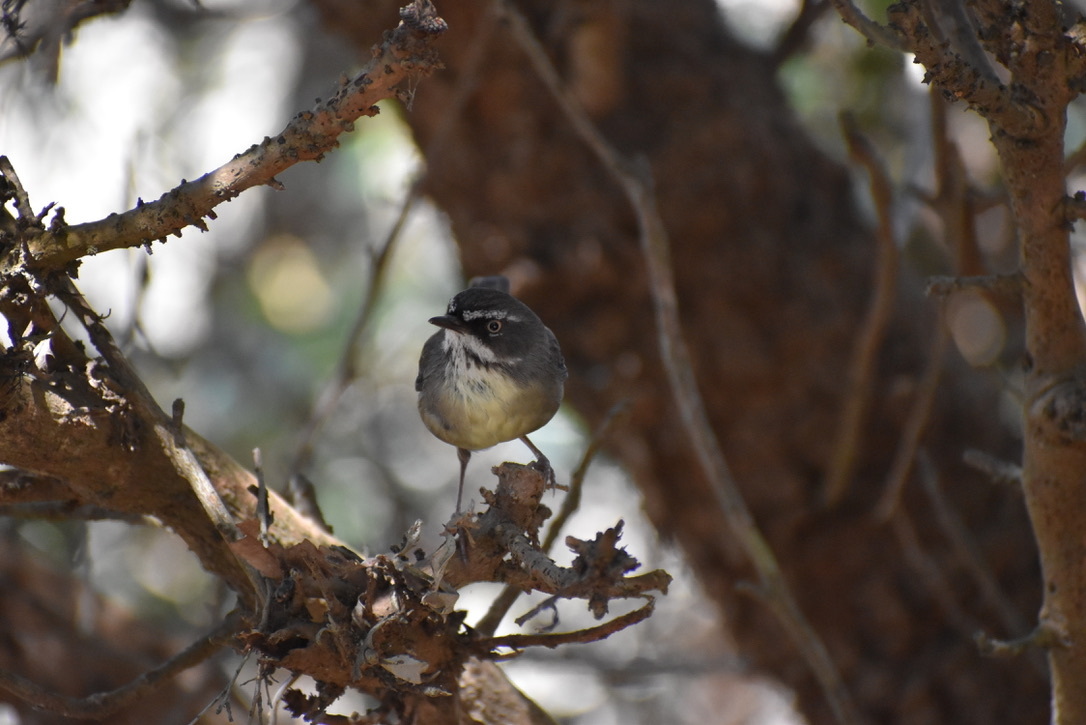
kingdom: Animalia
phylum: Chordata
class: Aves
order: Passeriformes
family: Acanthizidae
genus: Sericornis
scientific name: Sericornis frontalis
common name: White-browed scrubwren
